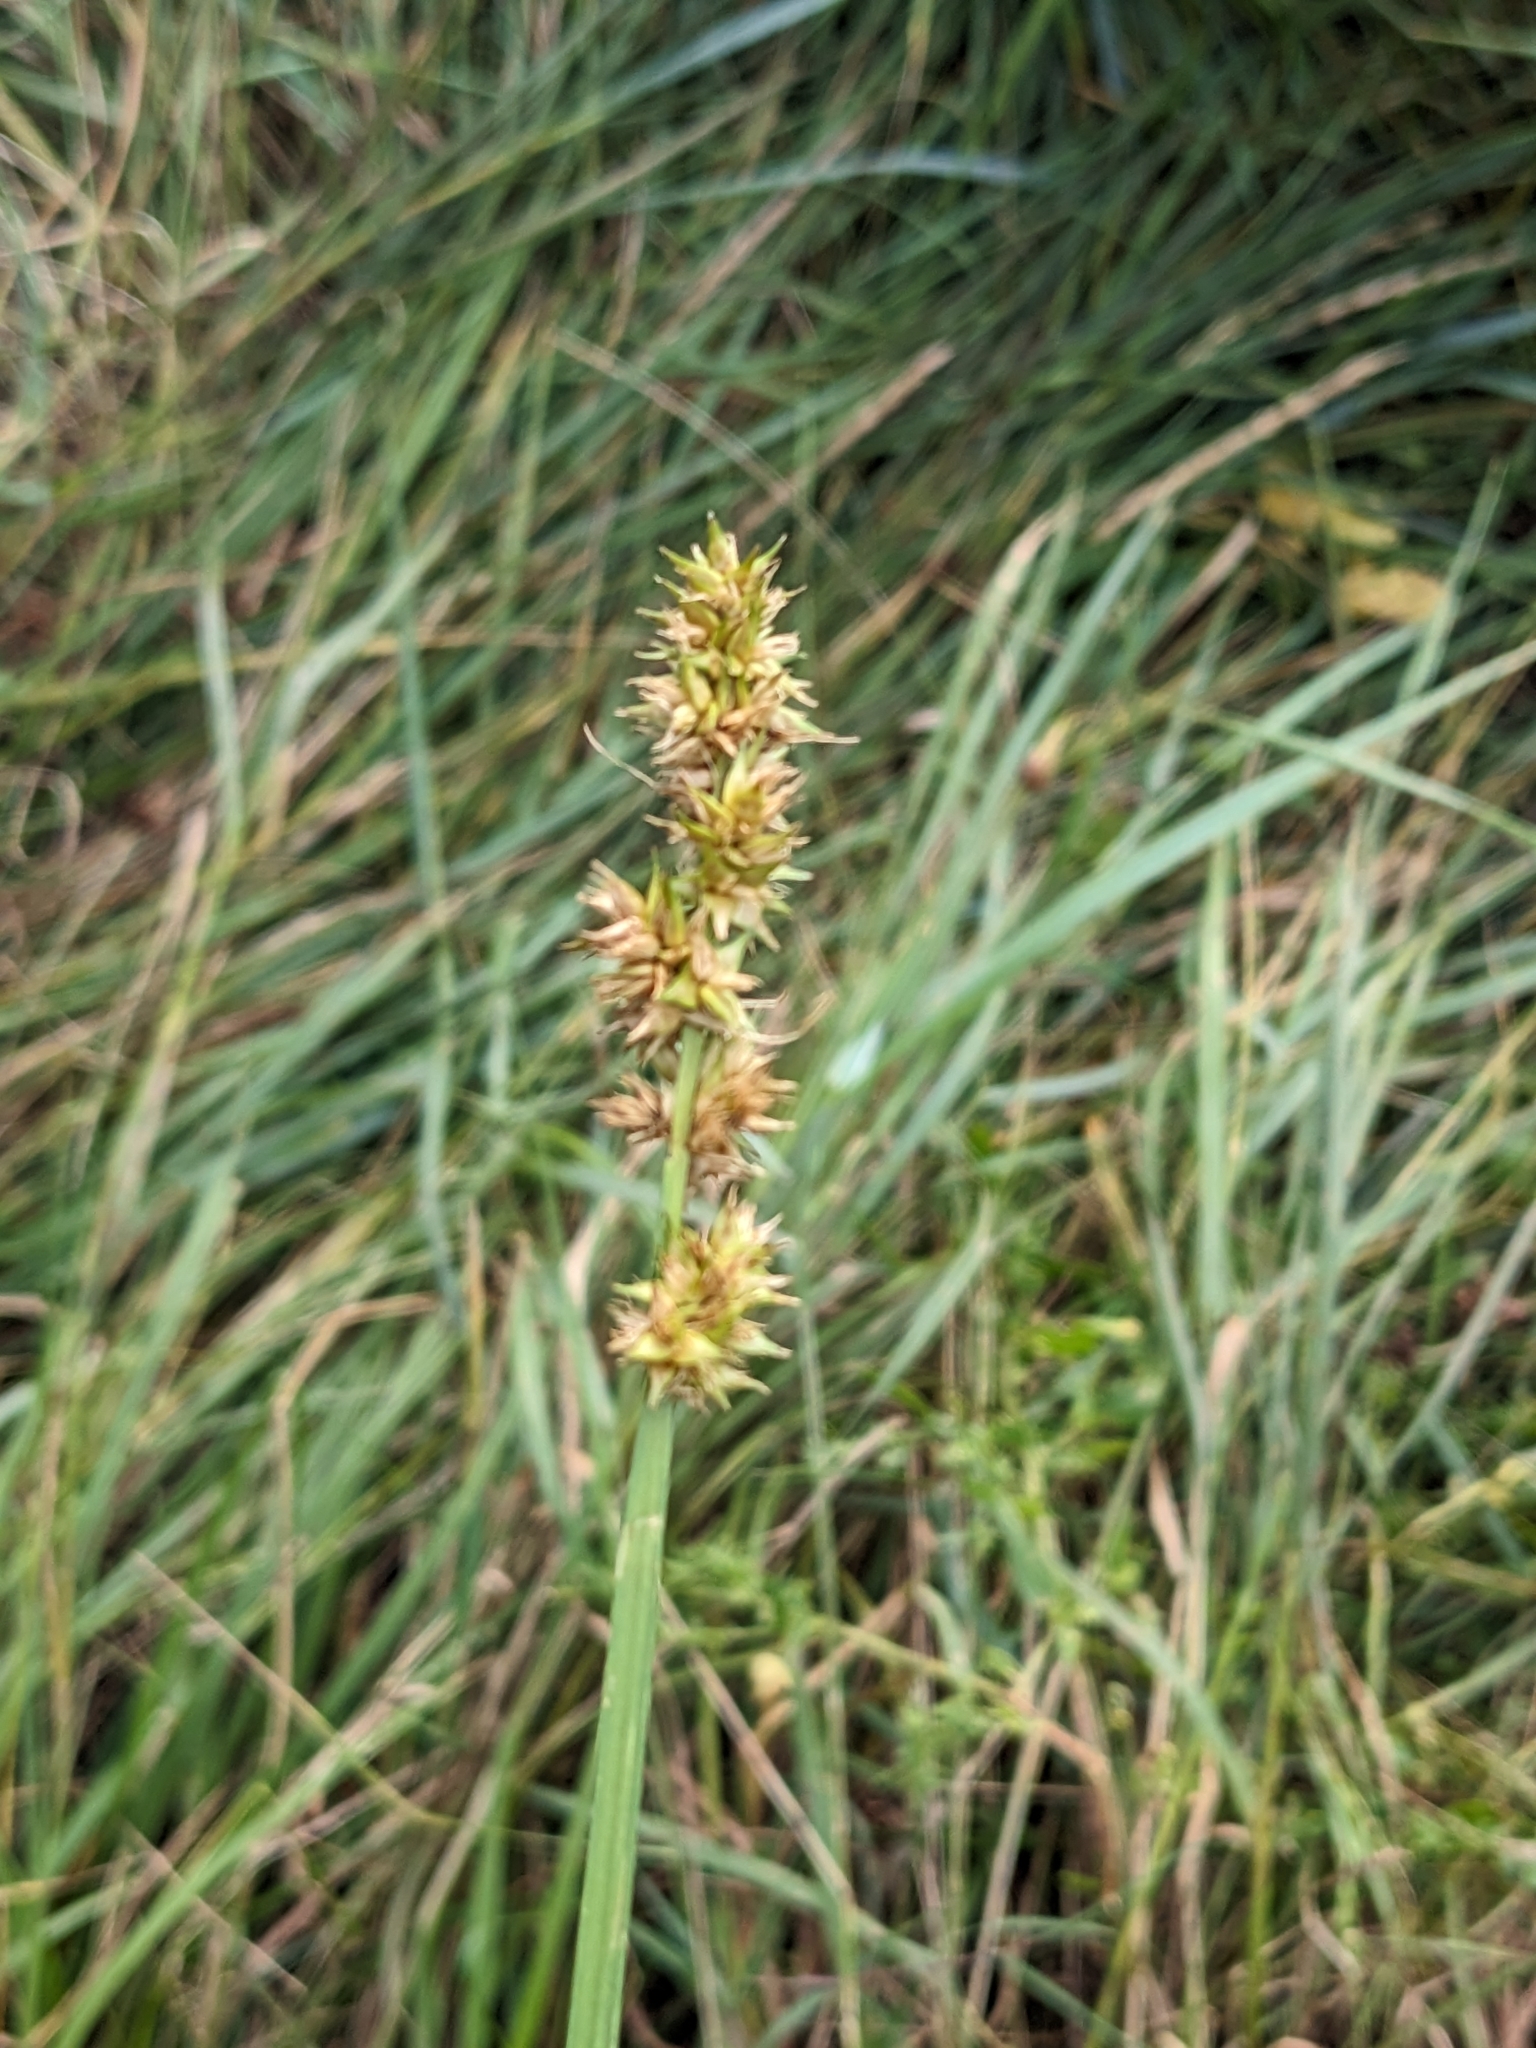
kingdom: Plantae
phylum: Tracheophyta
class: Liliopsida
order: Poales
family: Cyperaceae
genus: Carex
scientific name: Carex otrubae
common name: False fox-sedge
